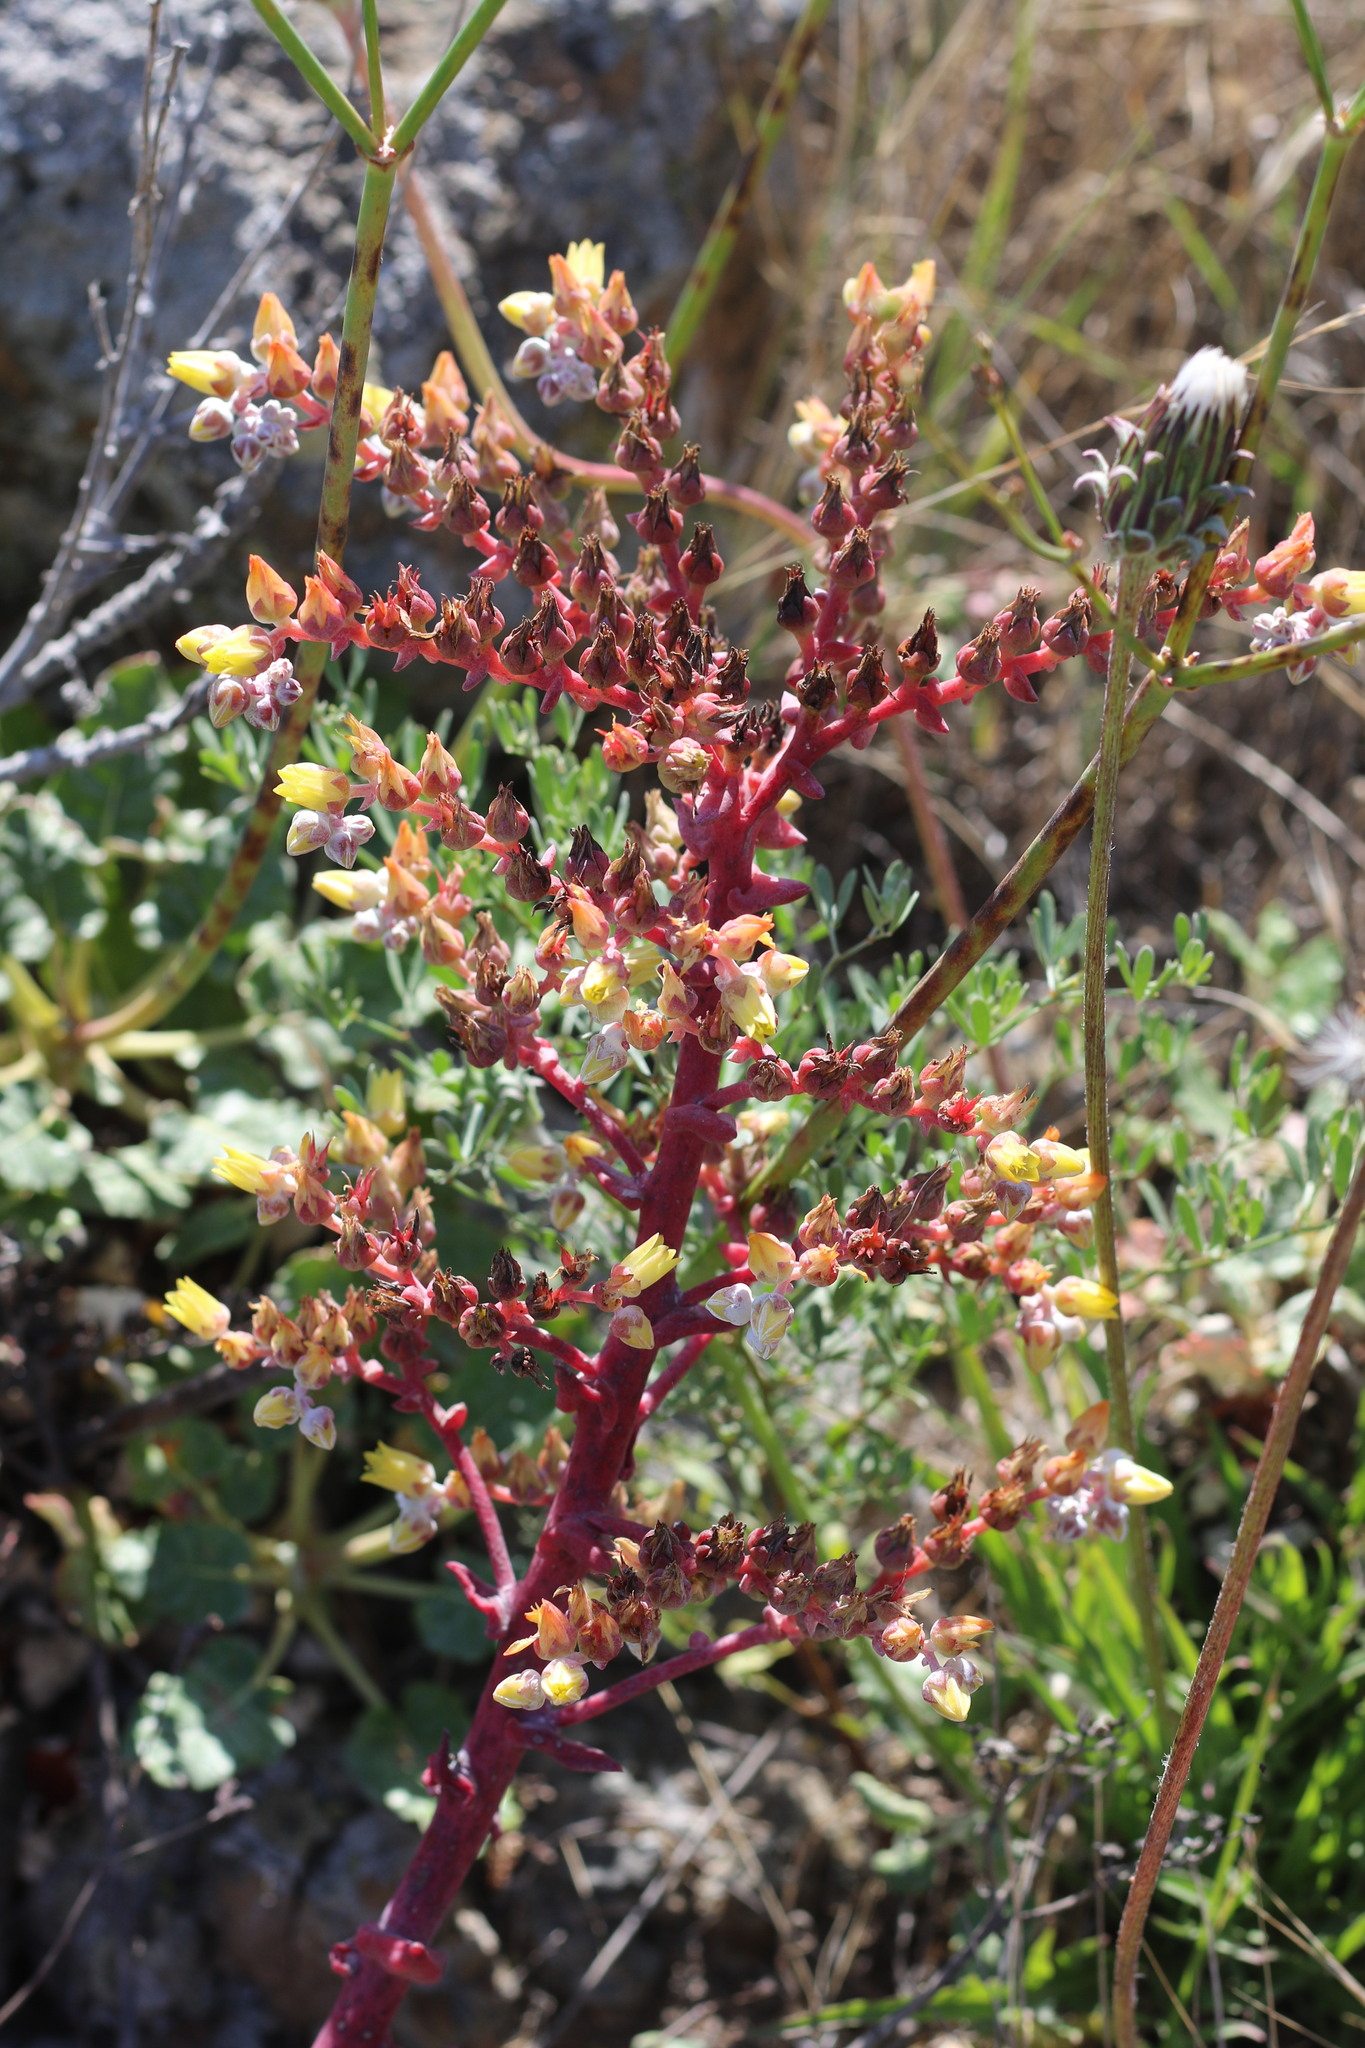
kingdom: Plantae
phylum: Tracheophyta
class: Magnoliopsida
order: Saxifragales
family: Crassulaceae
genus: Dudleya
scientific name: Dudleya greenei
